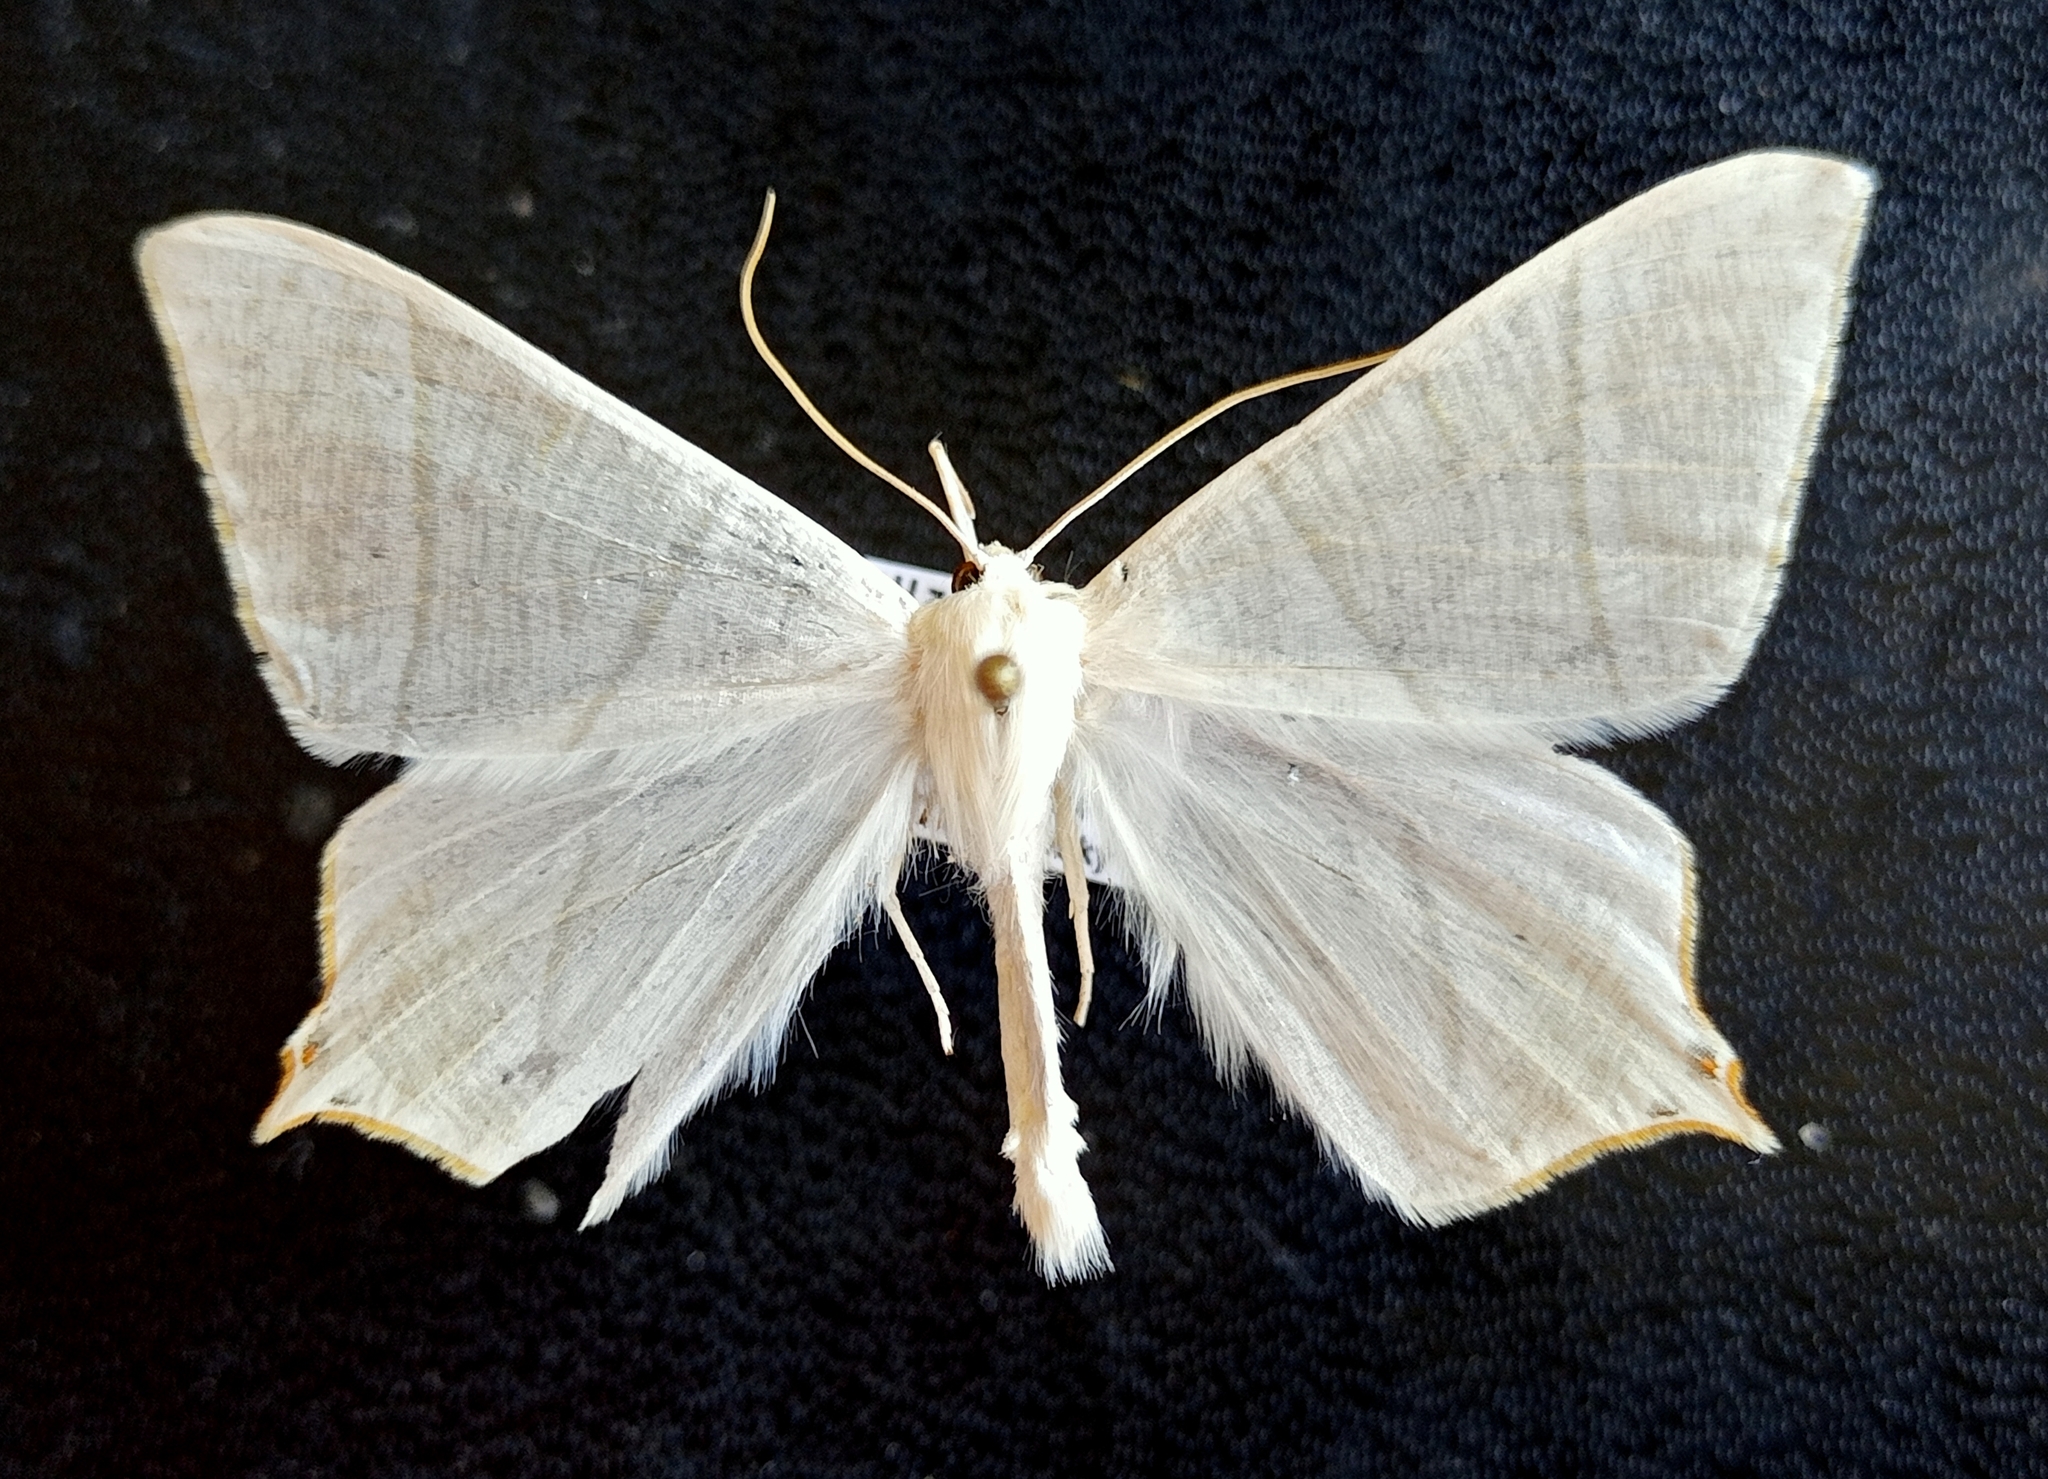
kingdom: Animalia
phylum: Arthropoda
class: Insecta
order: Lepidoptera
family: Geometridae
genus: Ourapteryx
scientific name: Ourapteryx purissima
